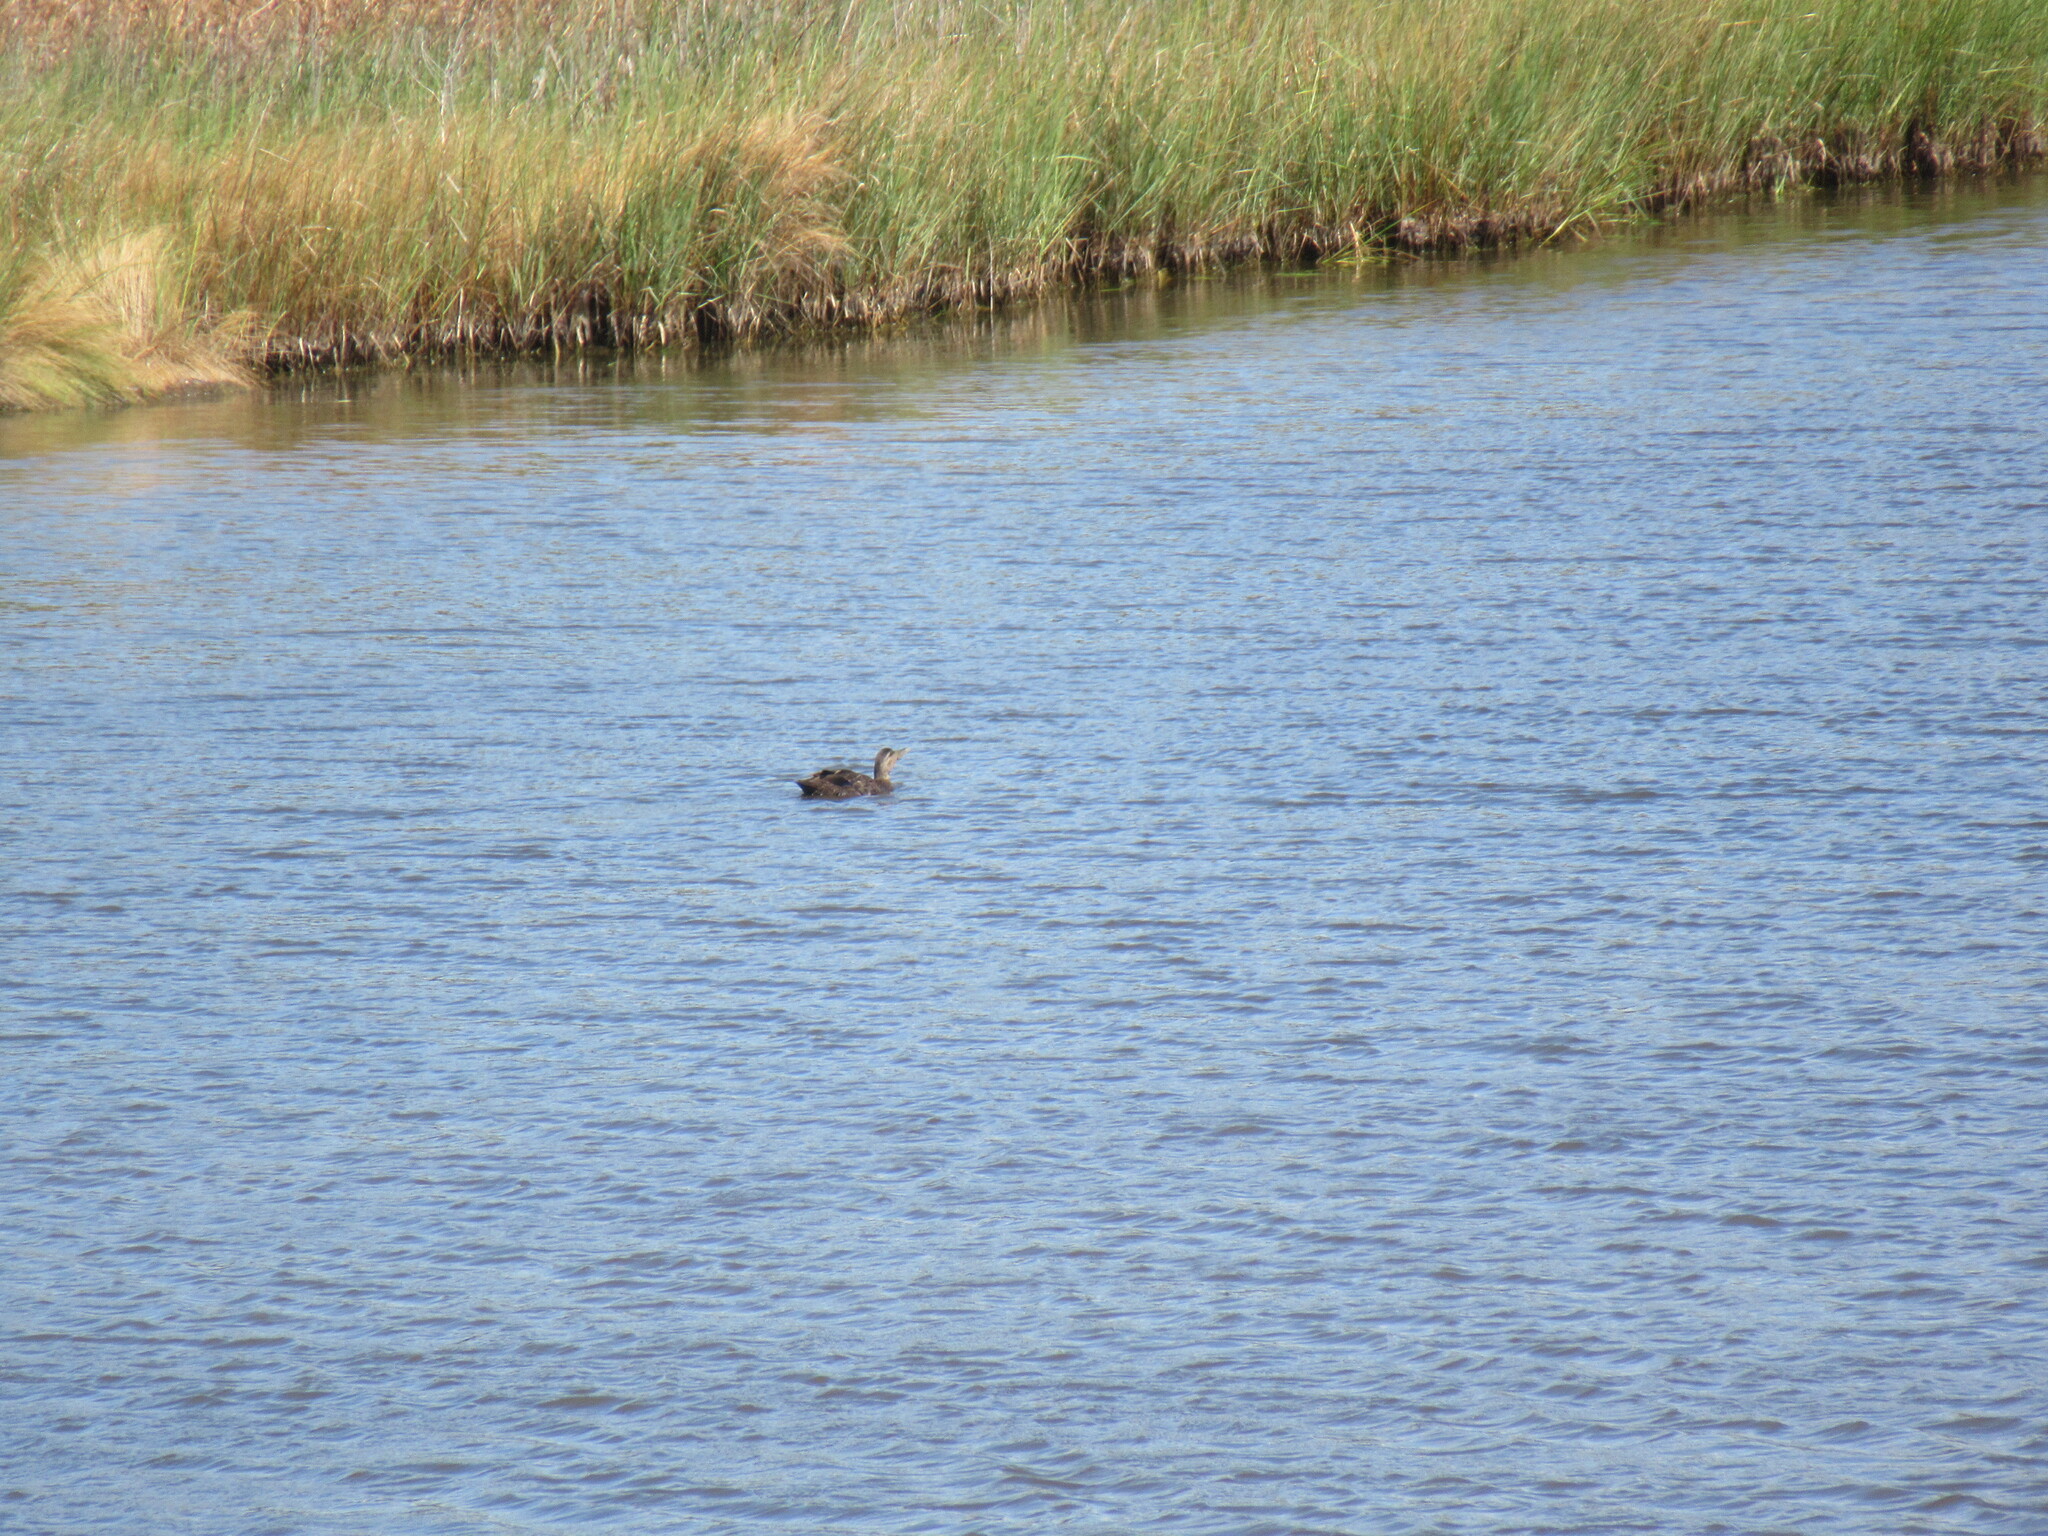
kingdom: Animalia
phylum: Chordata
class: Aves
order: Anseriformes
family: Anatidae
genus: Anas
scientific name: Anas rubripes
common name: American black duck
